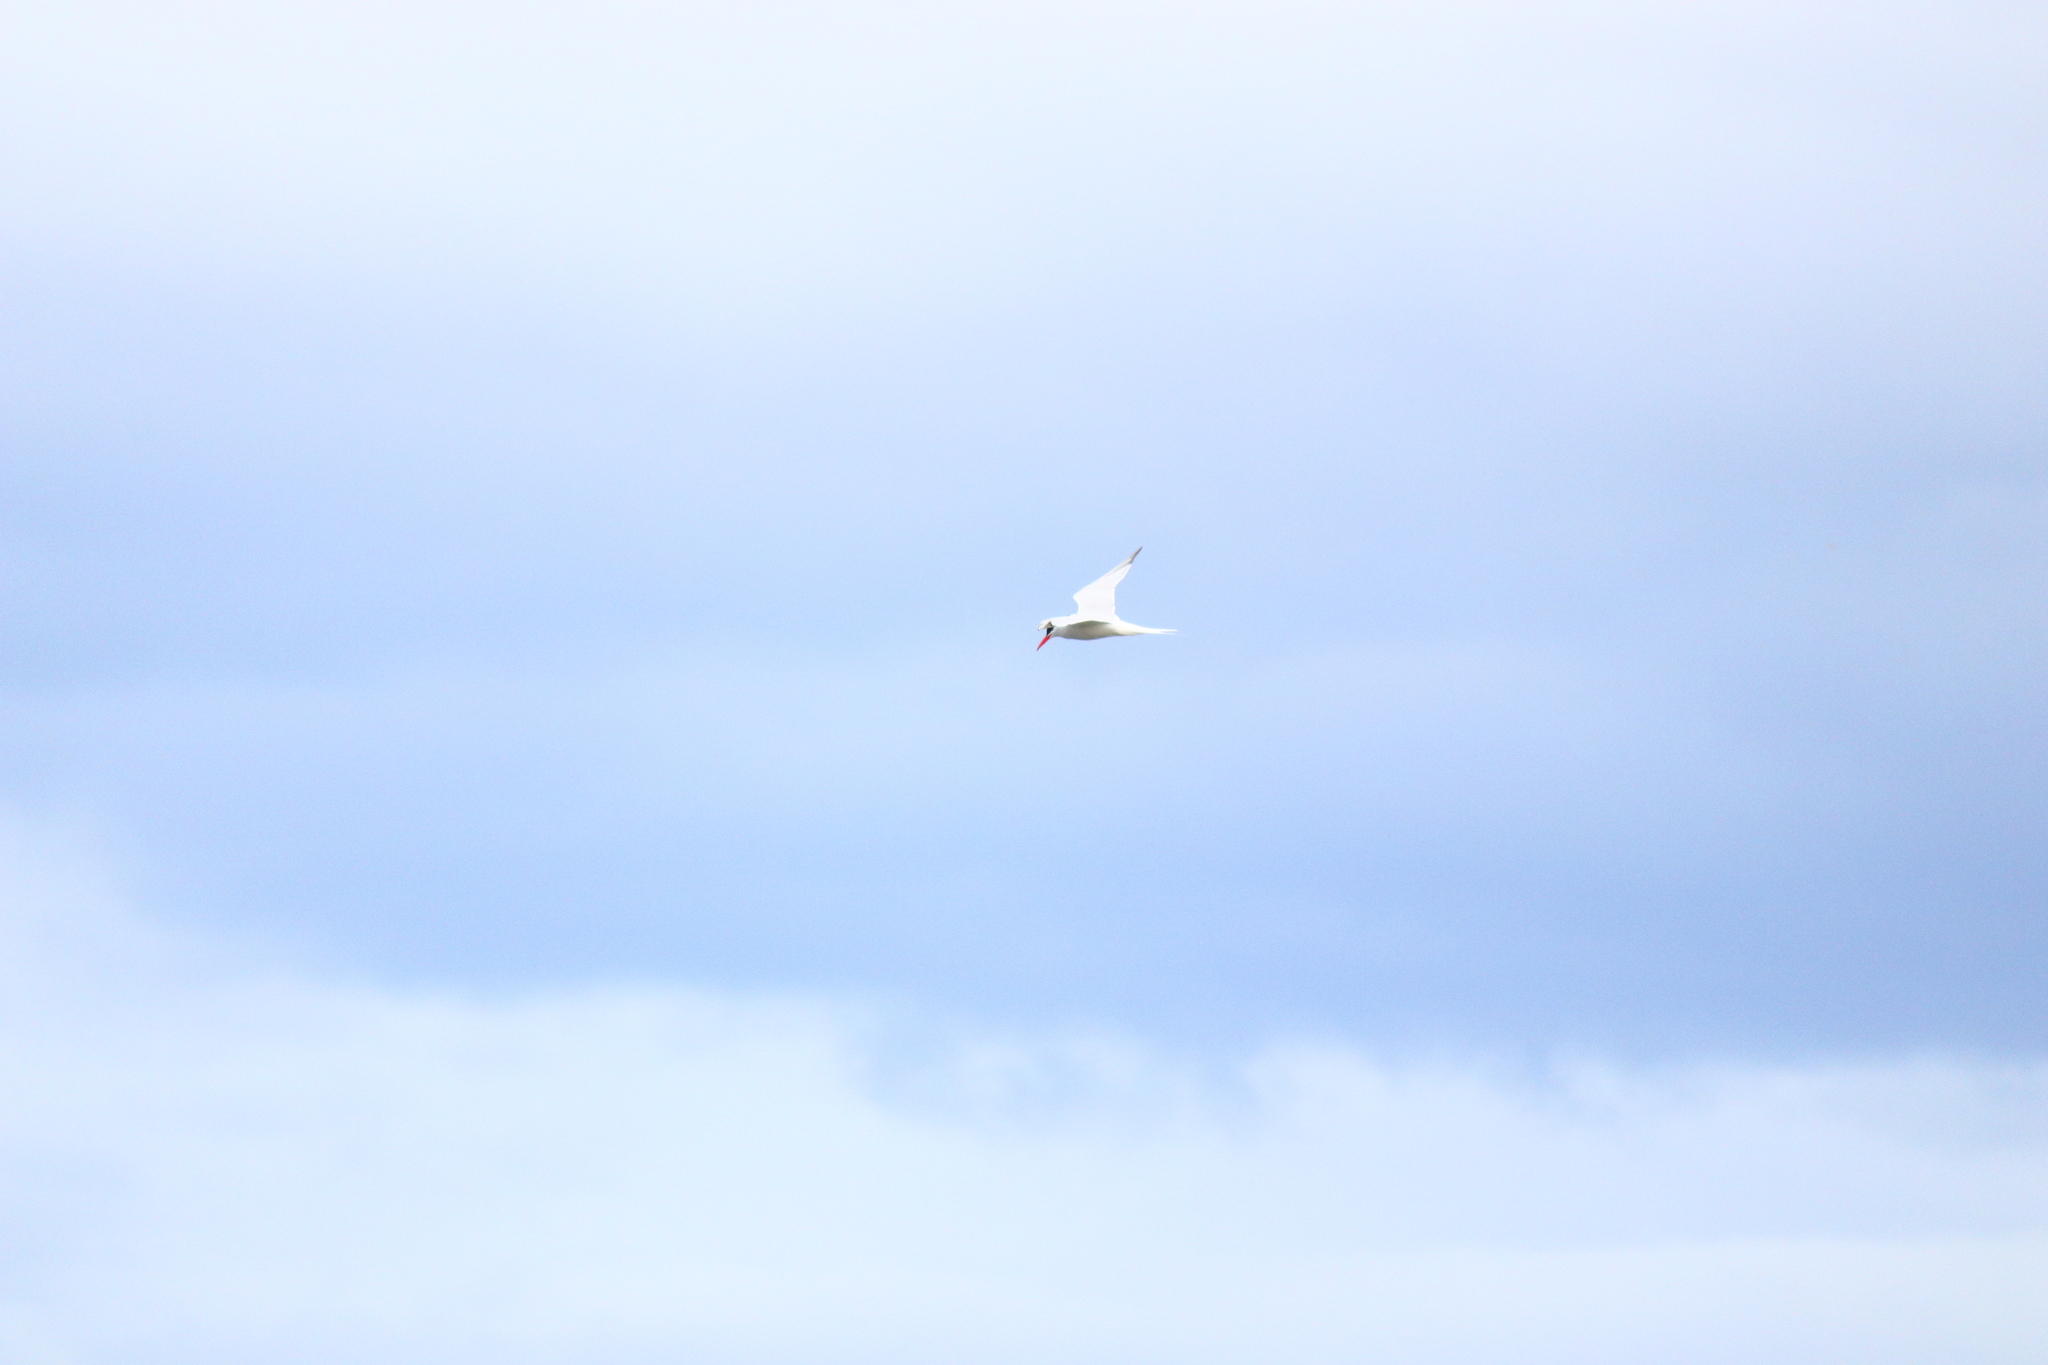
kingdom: Animalia
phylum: Chordata
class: Aves
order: Charadriiformes
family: Laridae
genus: Sterna
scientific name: Sterna hirundinacea
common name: South american tern
